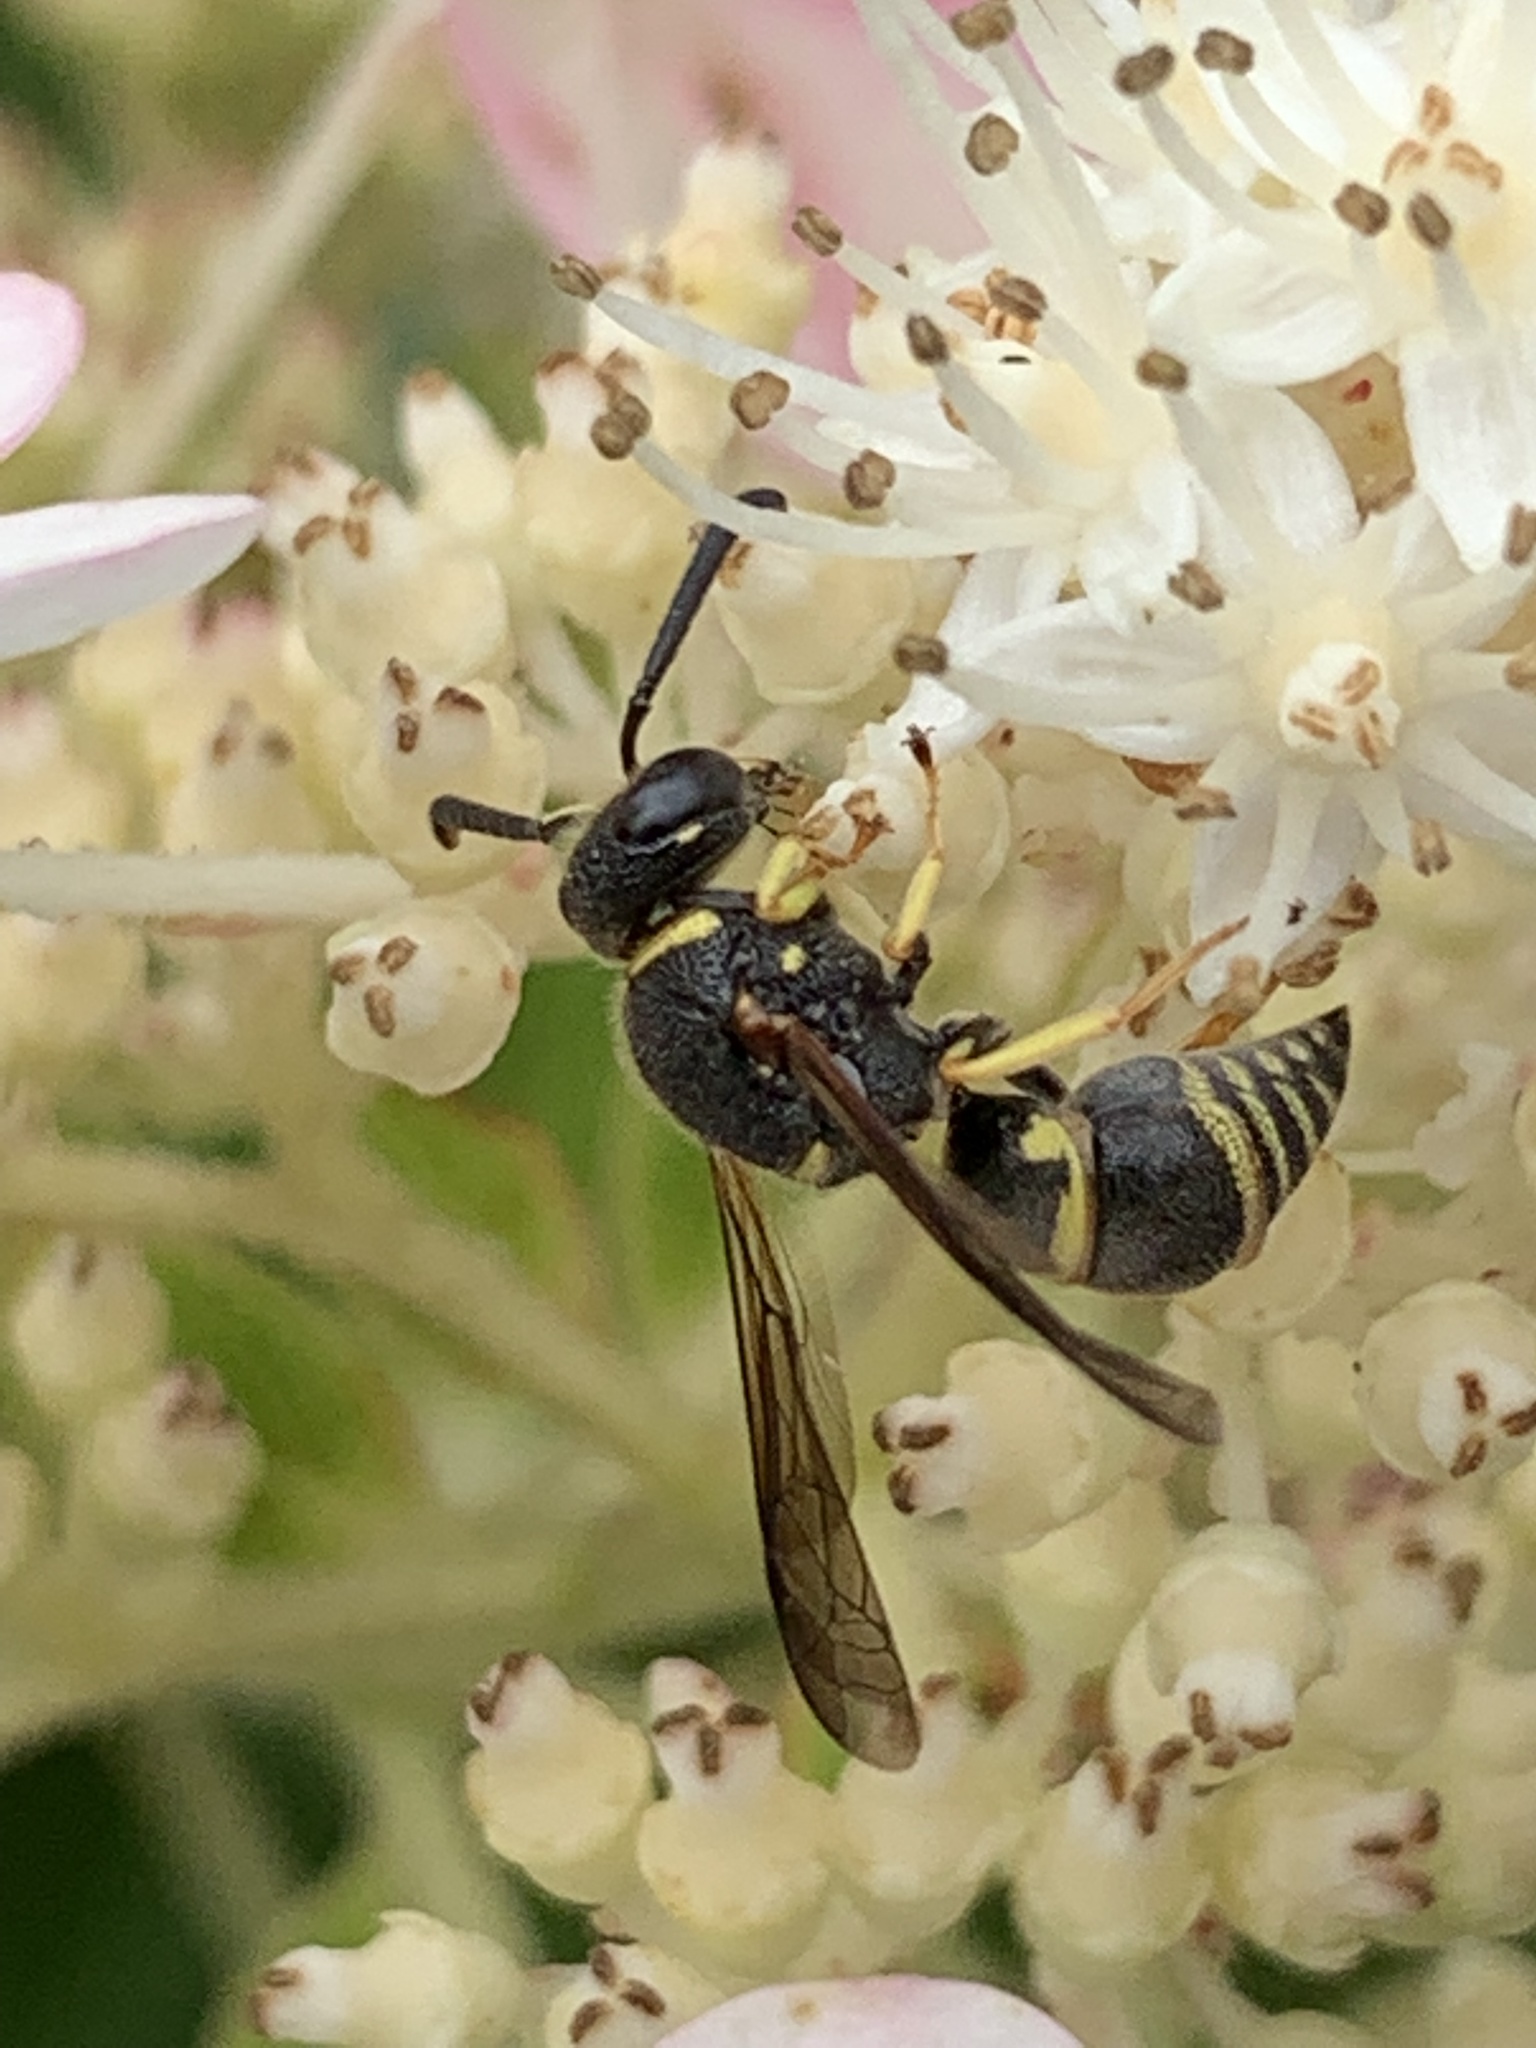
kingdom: Animalia
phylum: Arthropoda
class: Insecta
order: Hymenoptera
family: Eumenidae
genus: Euodynerus
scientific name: Euodynerus foraminatus
